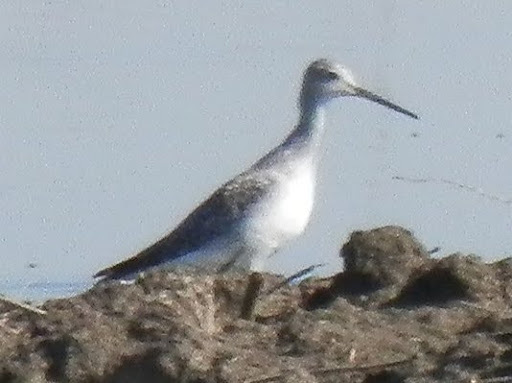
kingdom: Animalia
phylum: Chordata
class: Aves
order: Charadriiformes
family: Scolopacidae
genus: Tringa
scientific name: Tringa melanoleuca
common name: Greater yellowlegs
